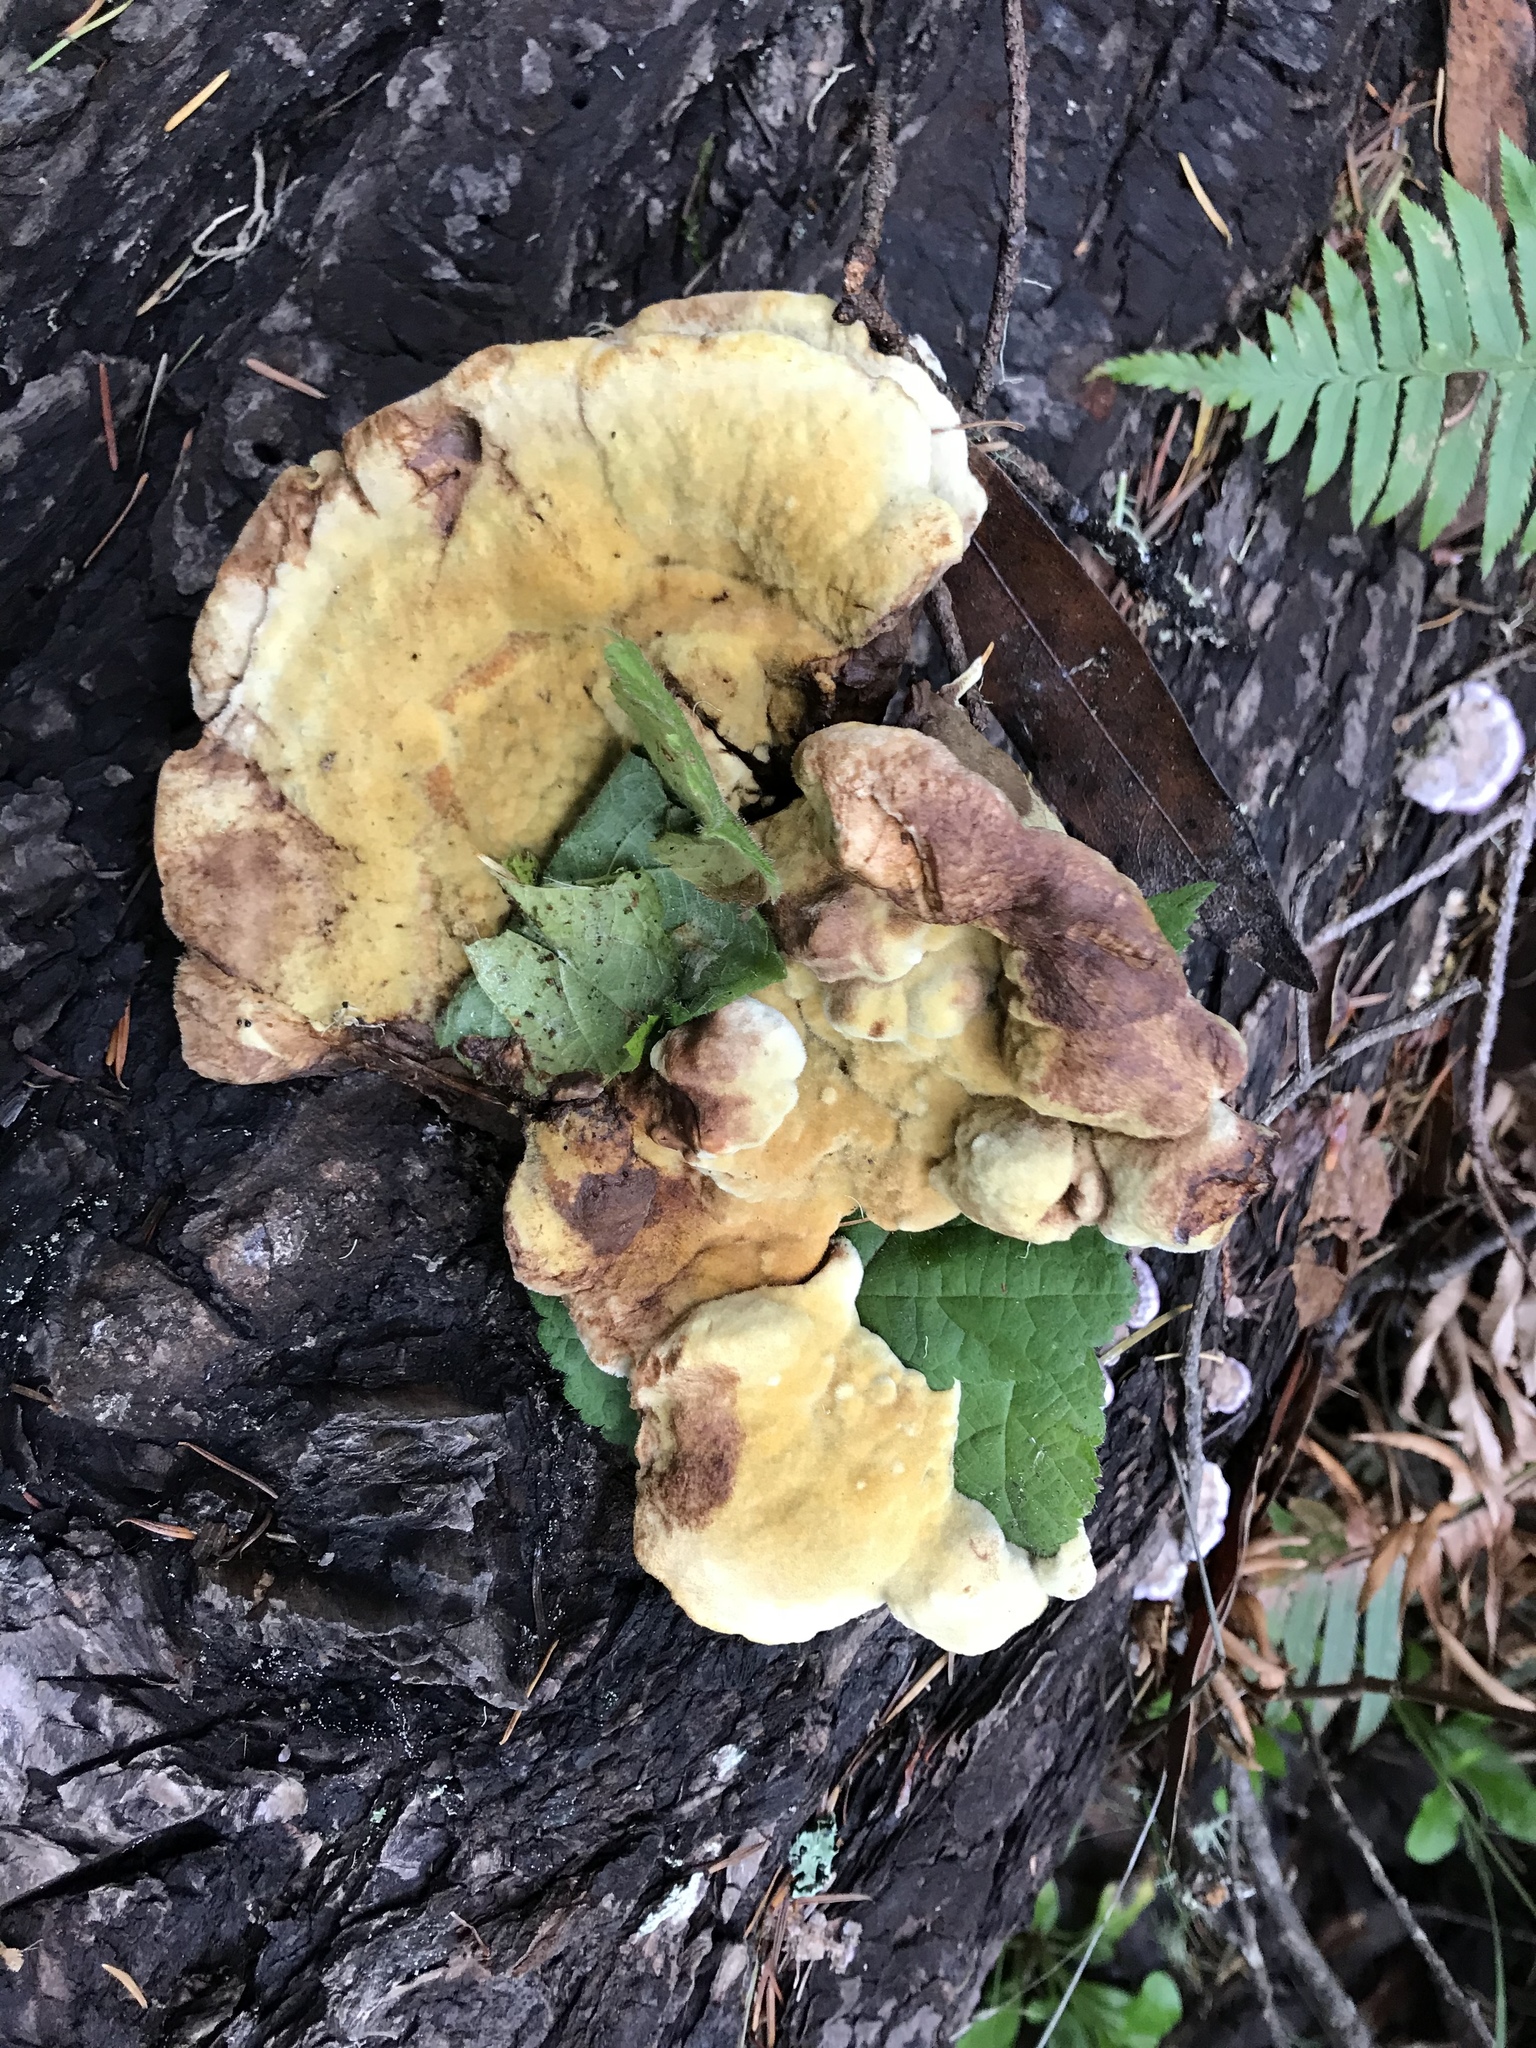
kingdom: Fungi
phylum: Basidiomycota
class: Agaricomycetes
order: Polyporales
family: Laetiporaceae
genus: Phaeolus
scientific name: Phaeolus schweinitzii
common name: Dyer's mazegill
